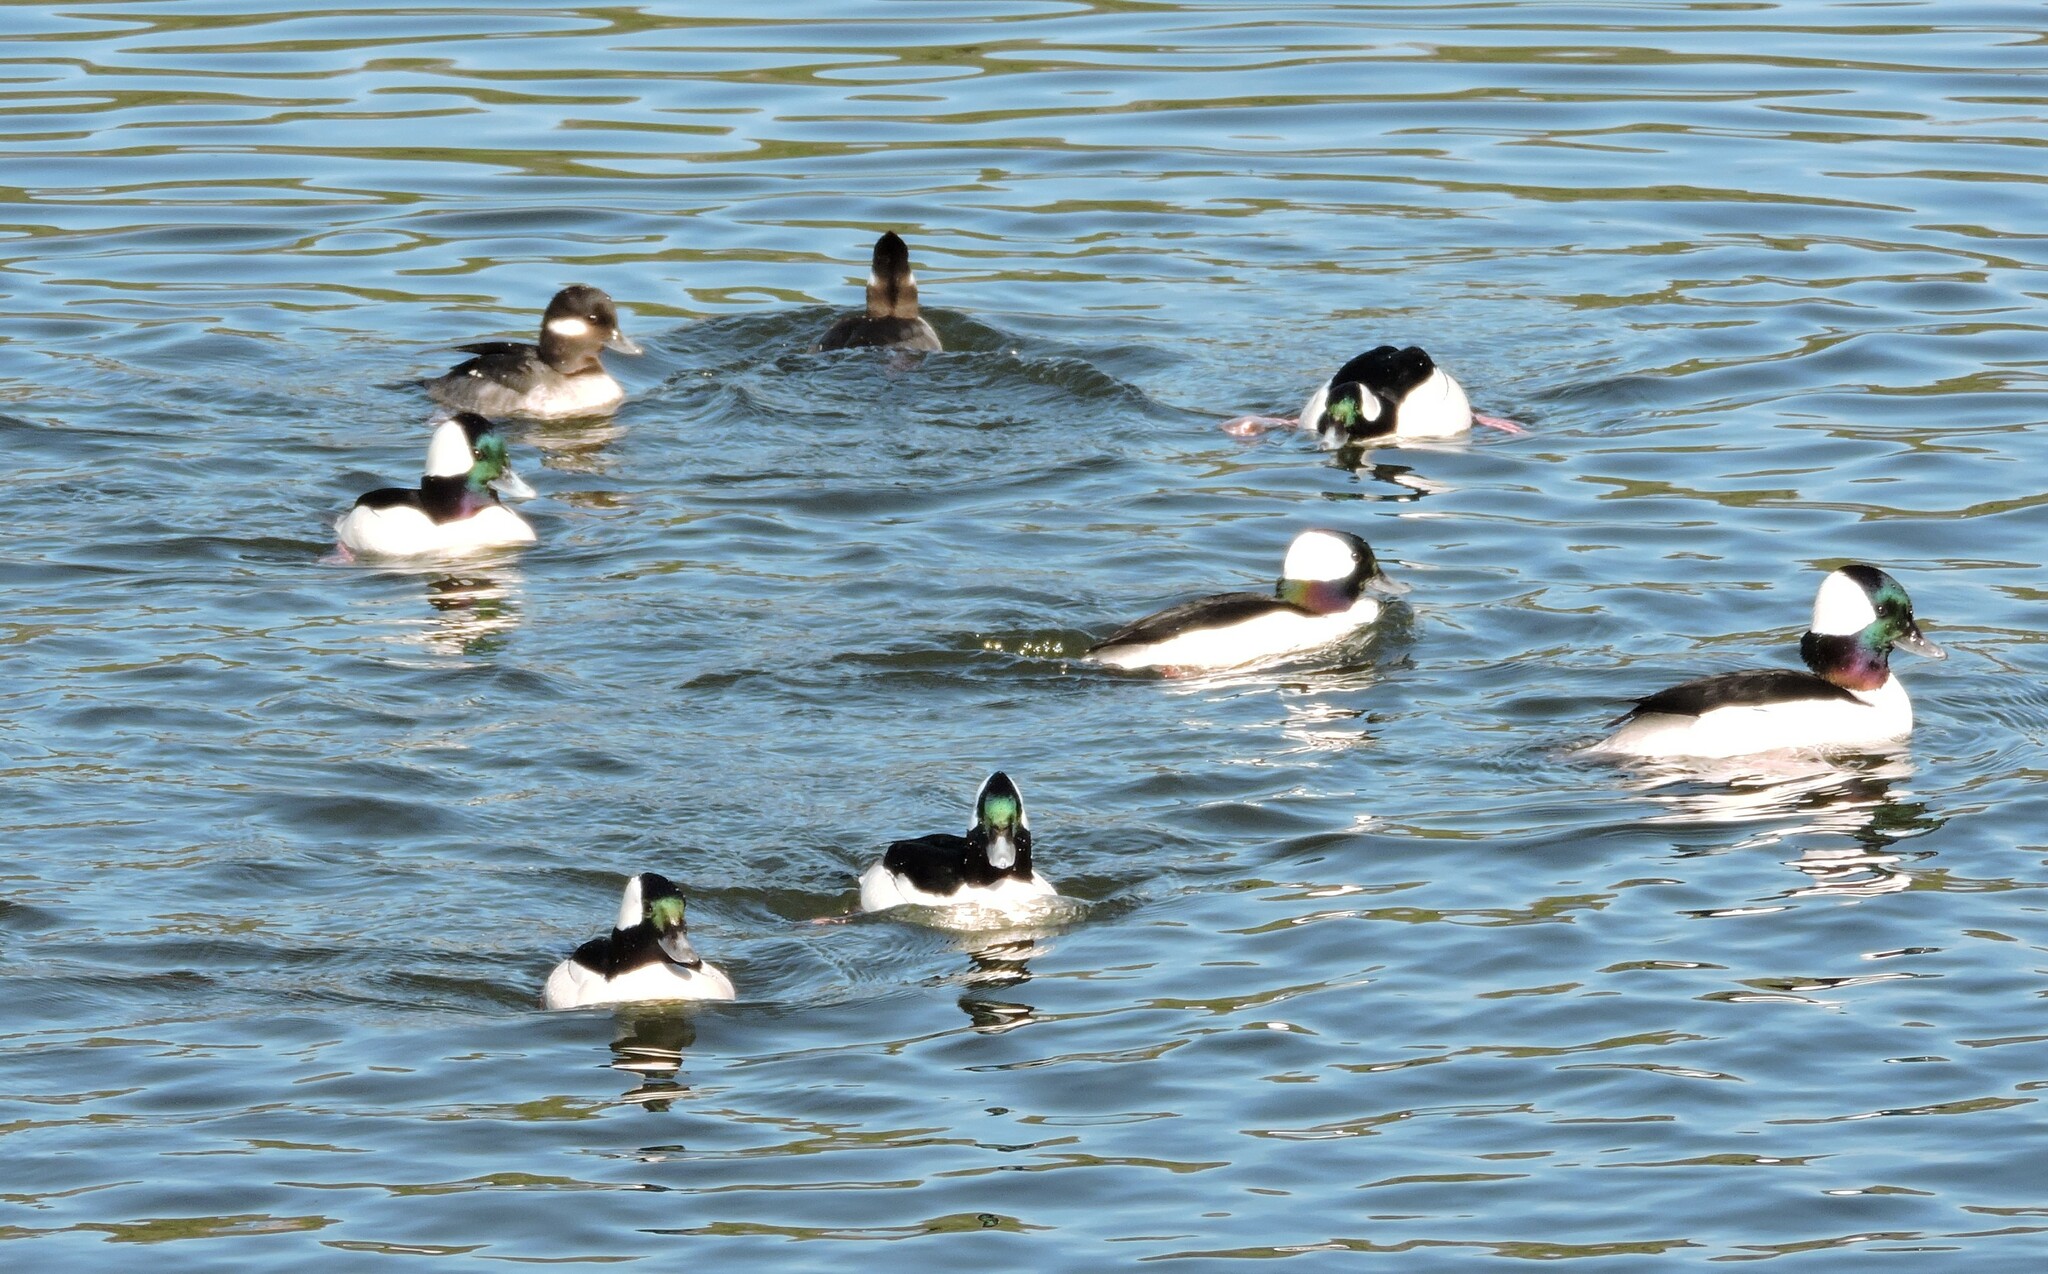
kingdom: Animalia
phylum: Chordata
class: Aves
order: Anseriformes
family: Anatidae
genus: Bucephala
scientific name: Bucephala albeola
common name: Bufflehead
